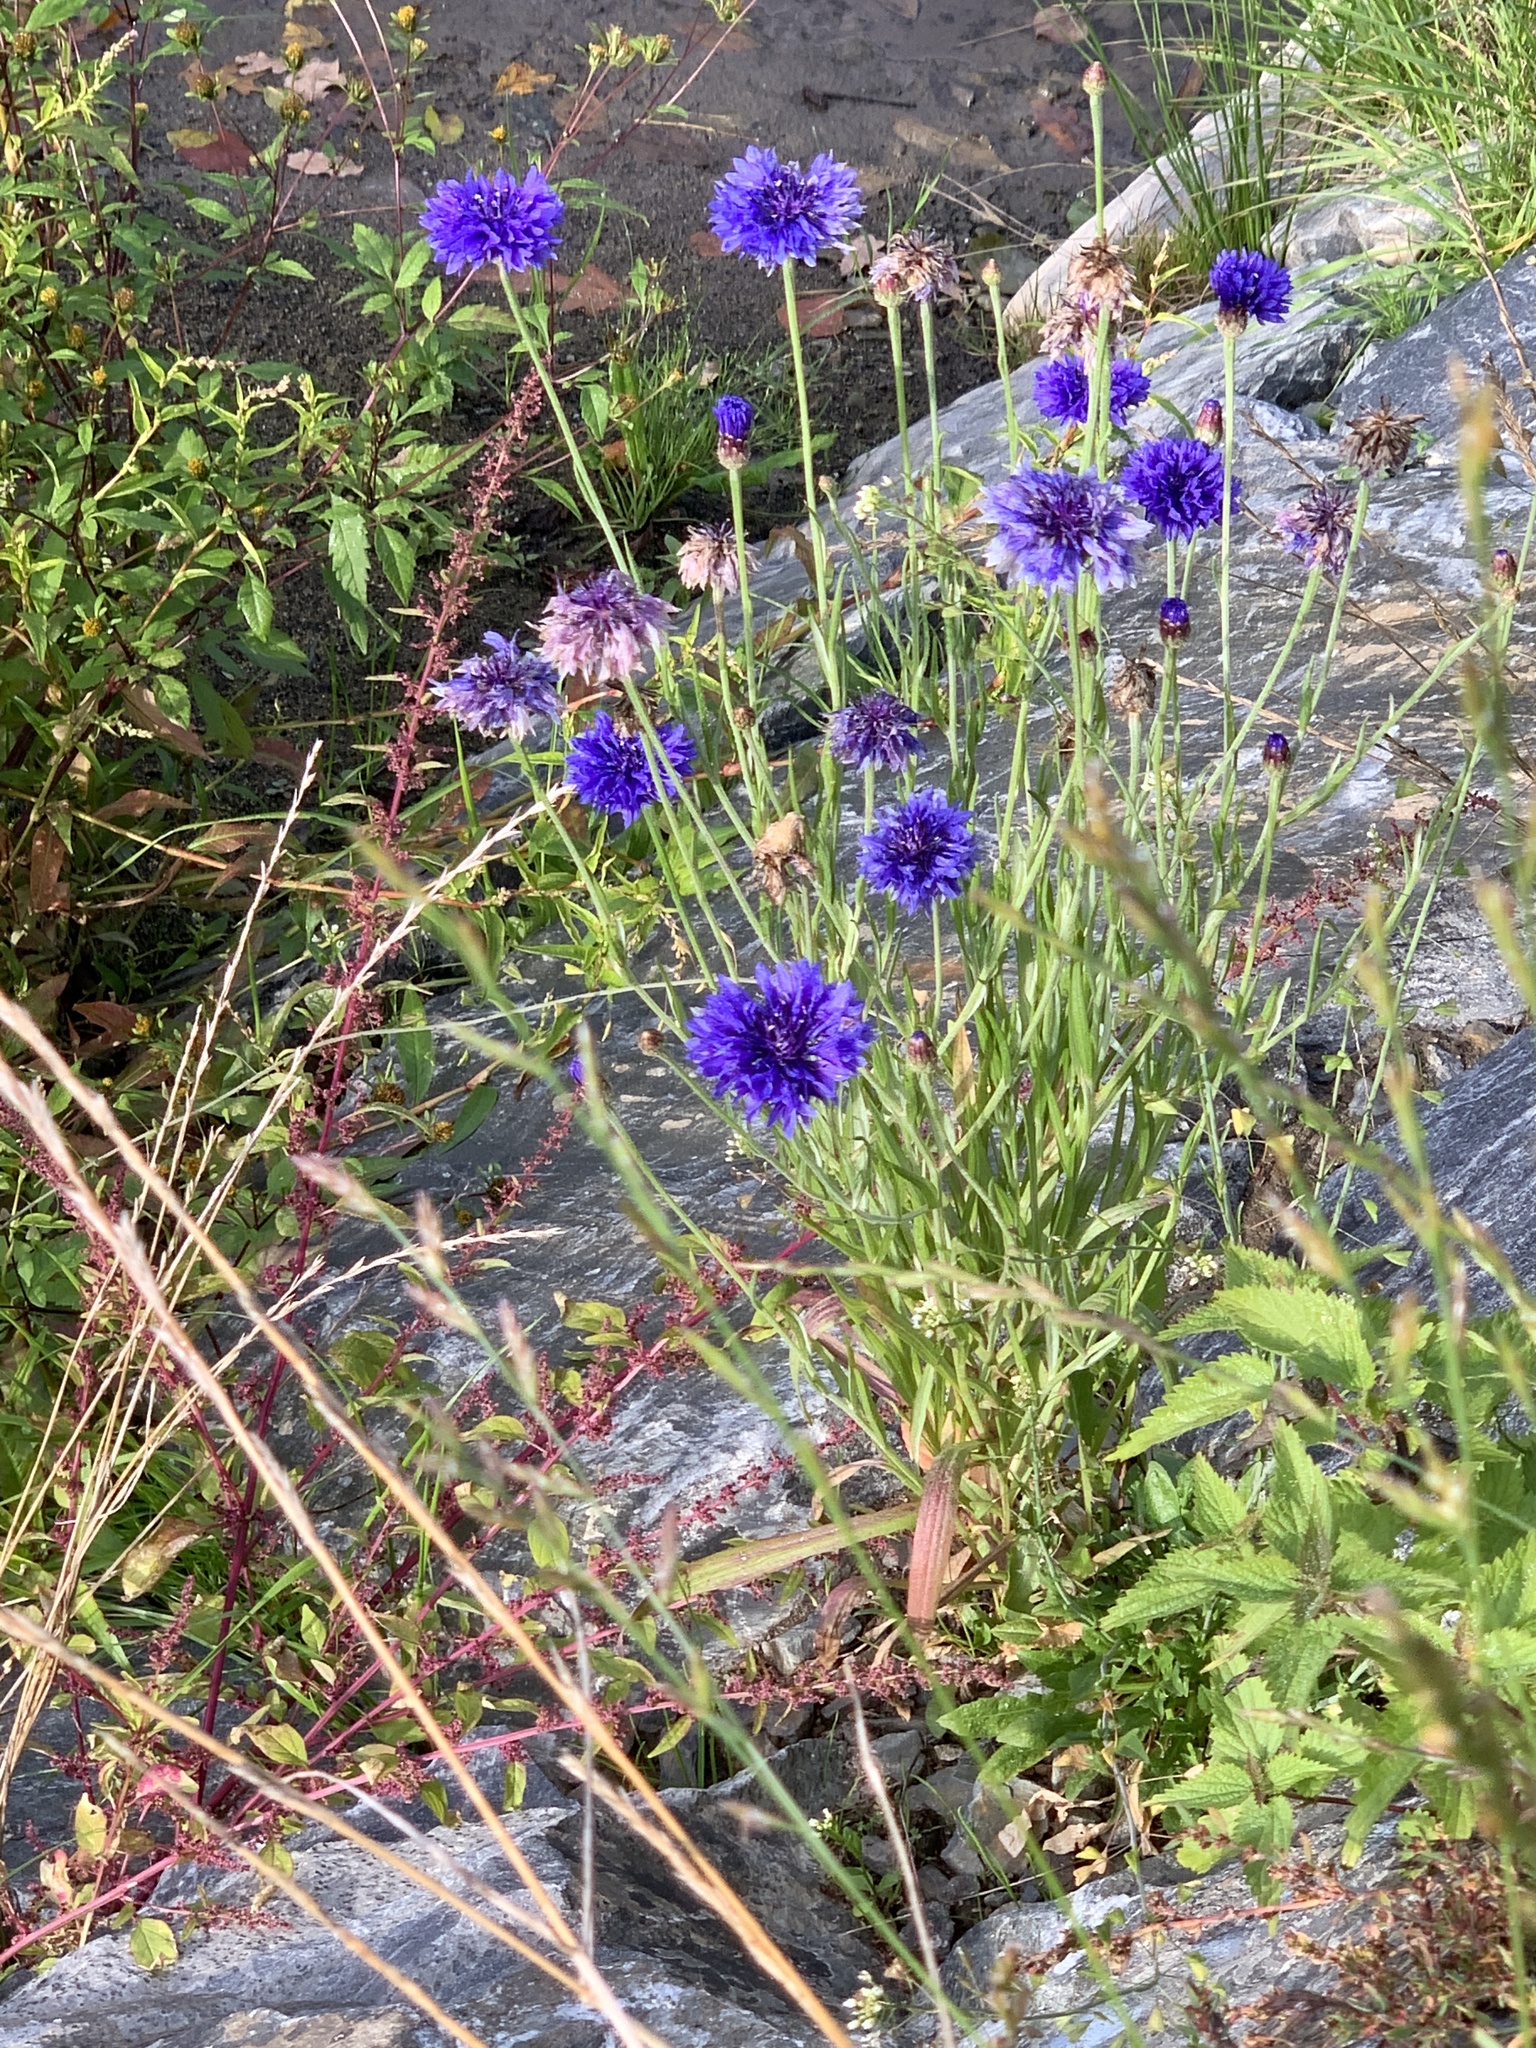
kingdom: Plantae
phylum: Tracheophyta
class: Magnoliopsida
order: Asterales
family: Asteraceae
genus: Centaurea
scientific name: Centaurea cyanus
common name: Cornflower
